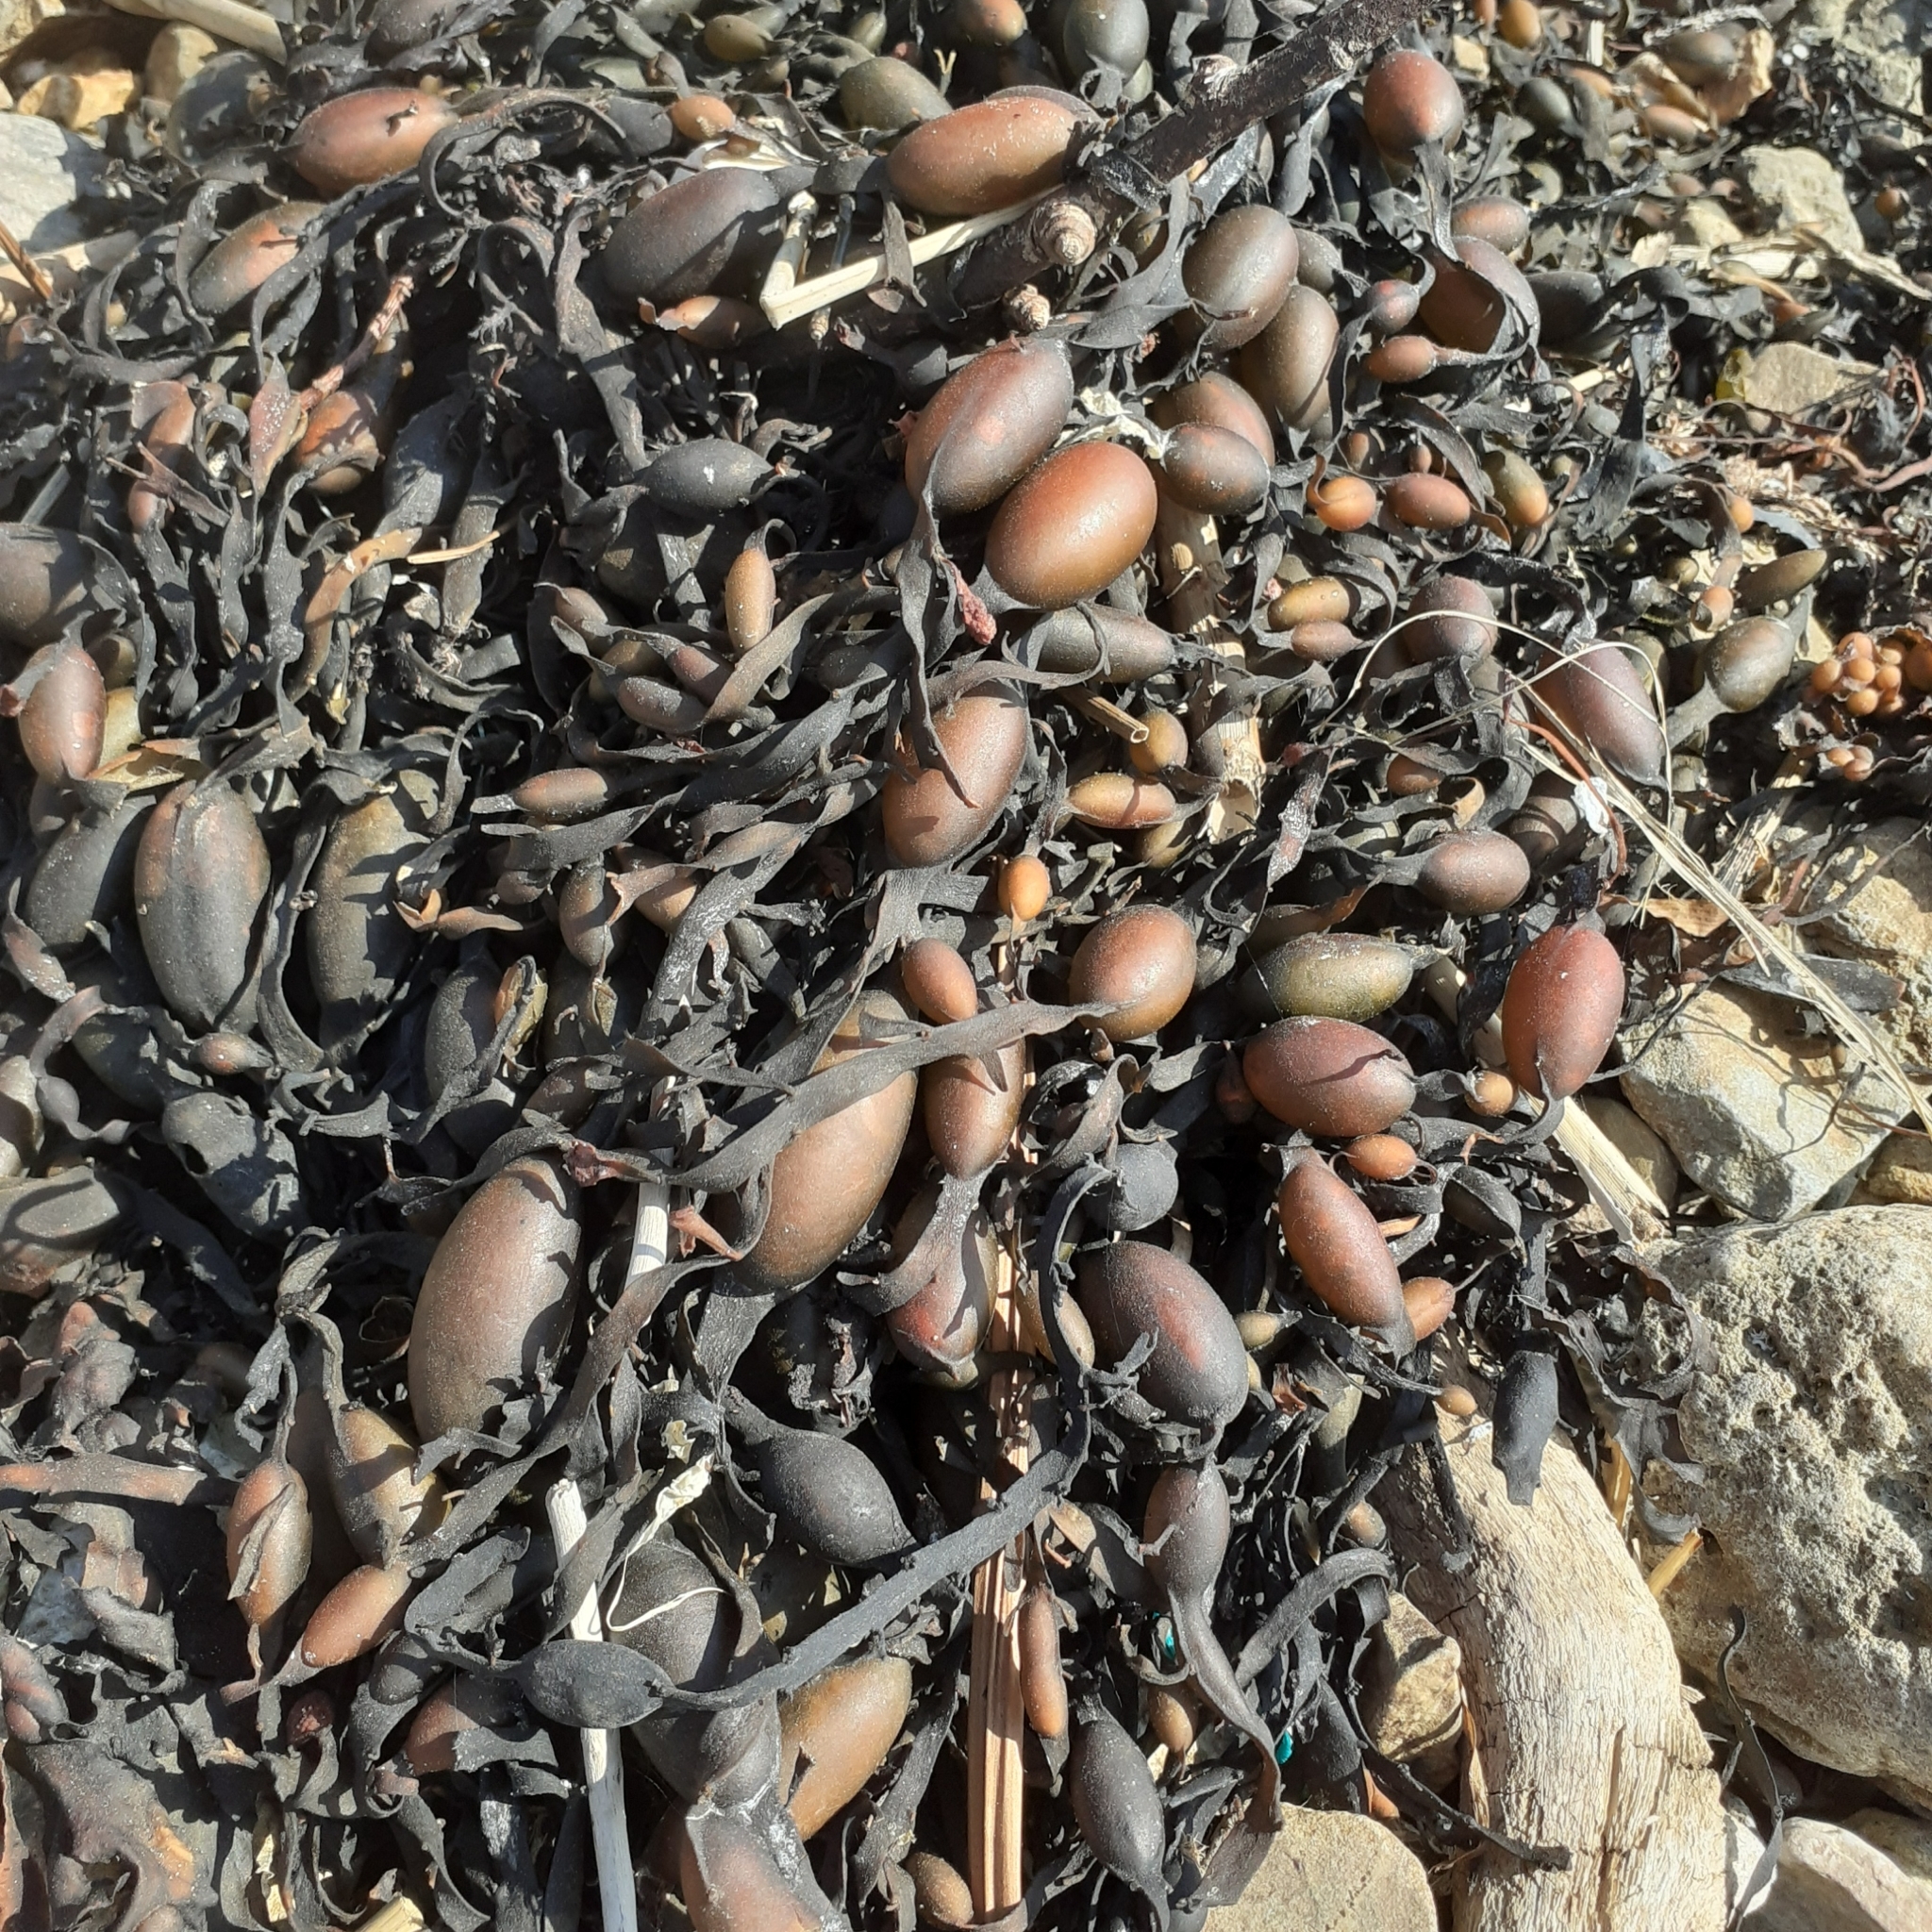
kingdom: Chromista
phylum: Ochrophyta
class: Phaeophyceae
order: Fucales
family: Fucaceae
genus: Ascophyllum
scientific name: Ascophyllum nodosum
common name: Knotted wrack
